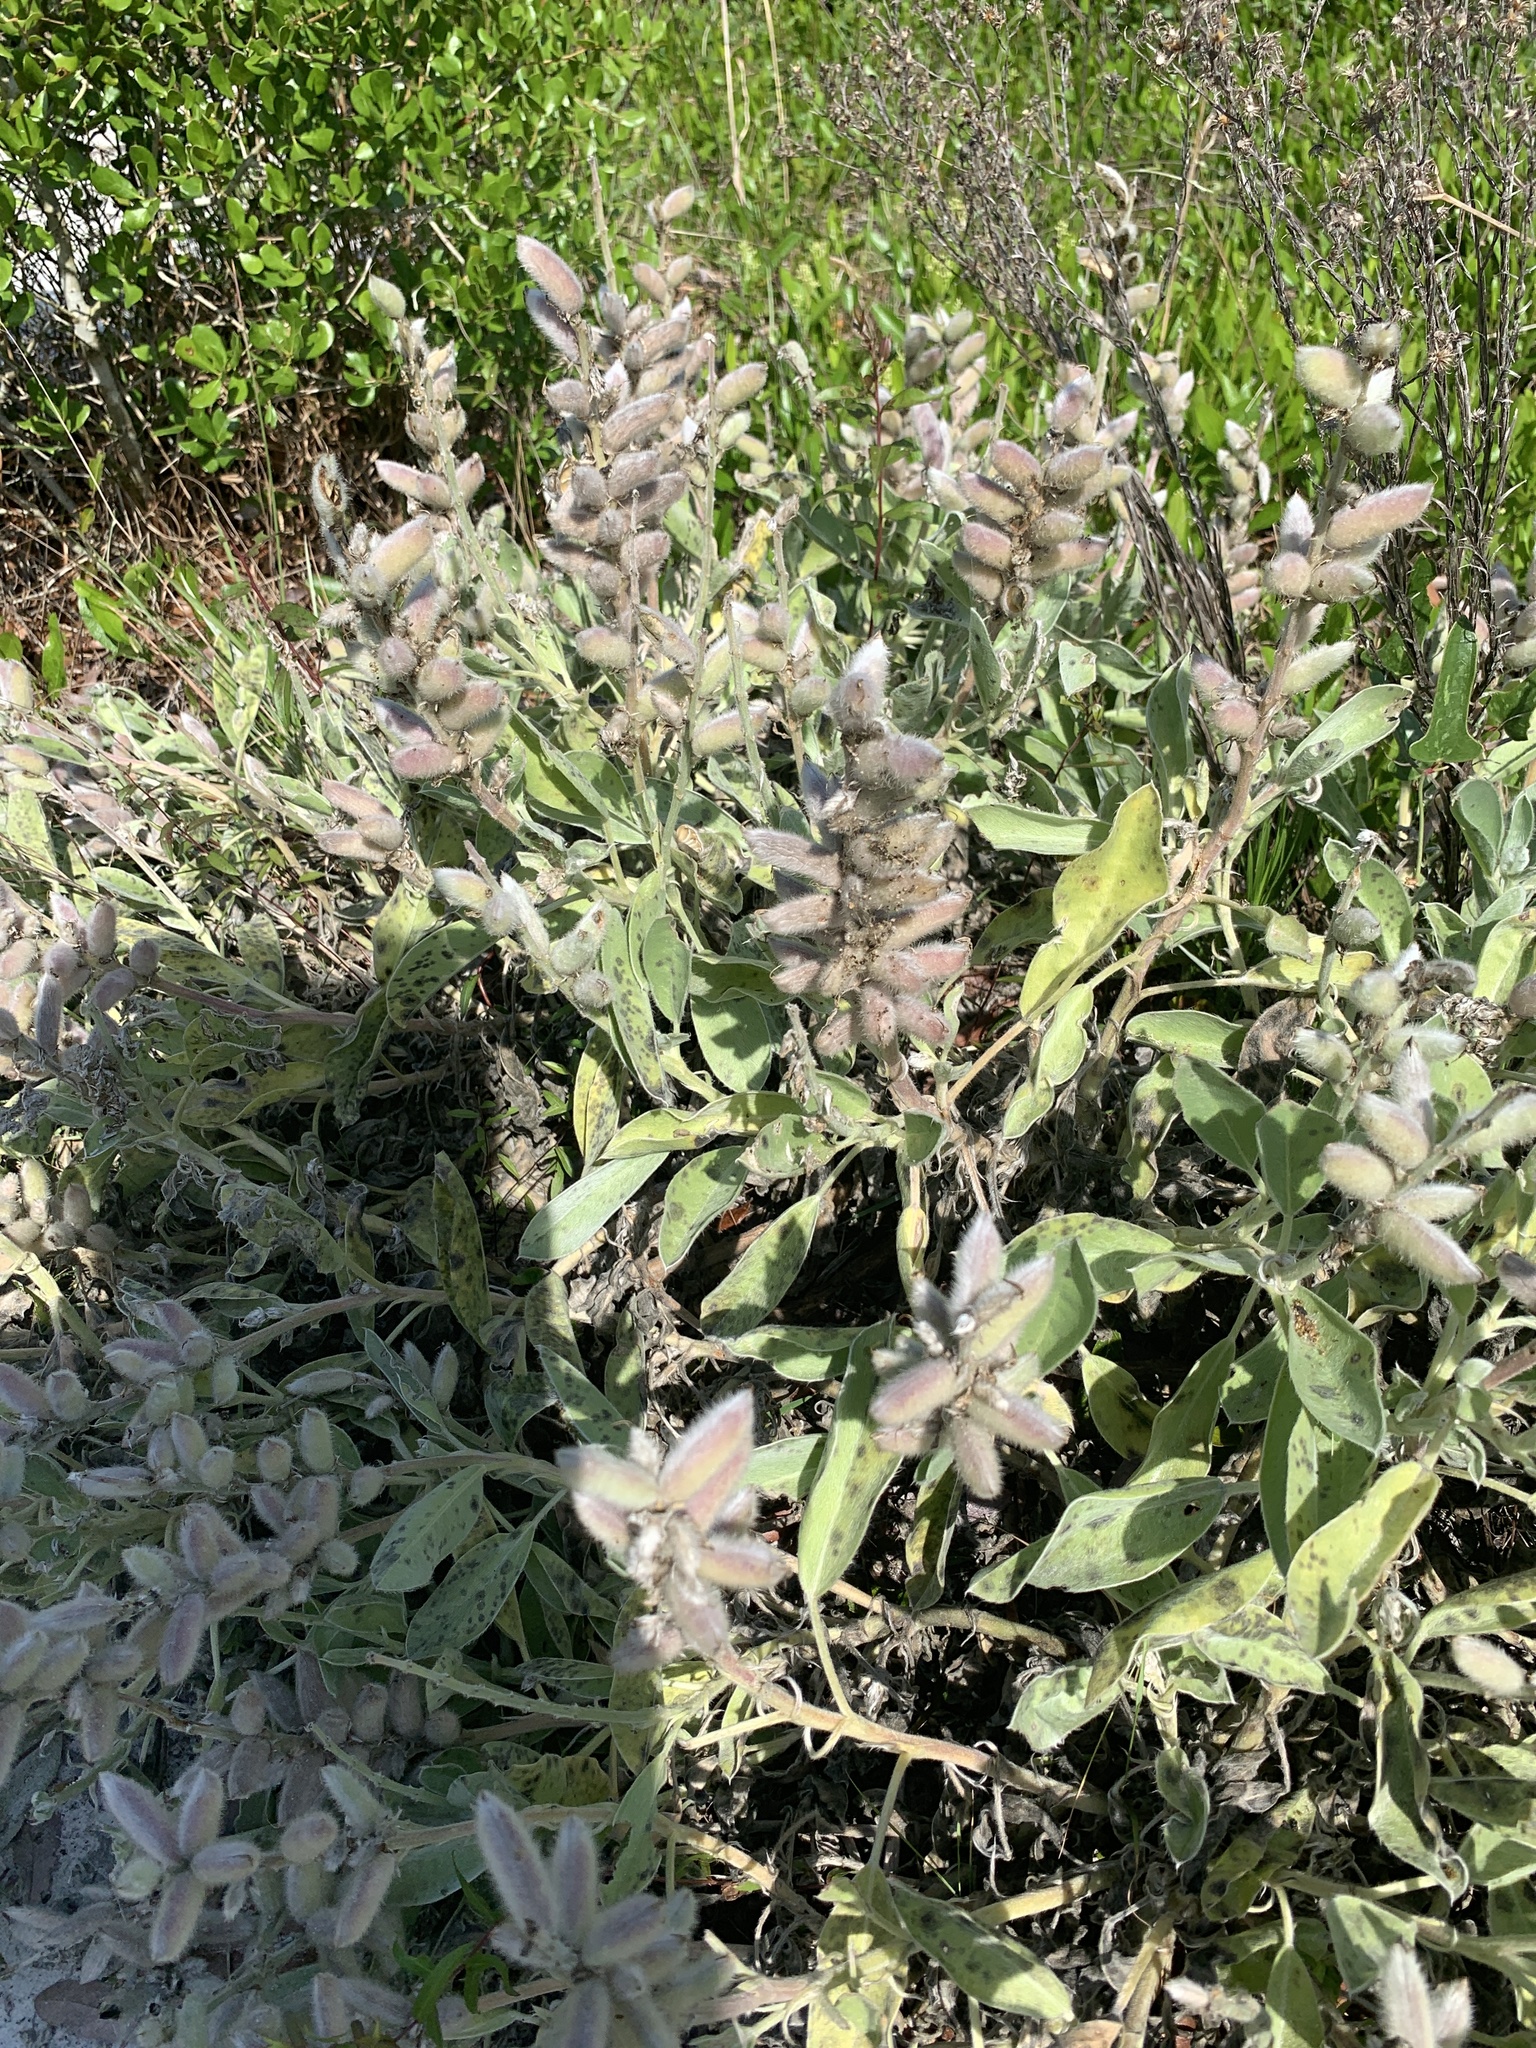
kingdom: Plantae
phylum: Tracheophyta
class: Magnoliopsida
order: Fabales
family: Fabaceae
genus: Lupinus
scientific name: Lupinus
